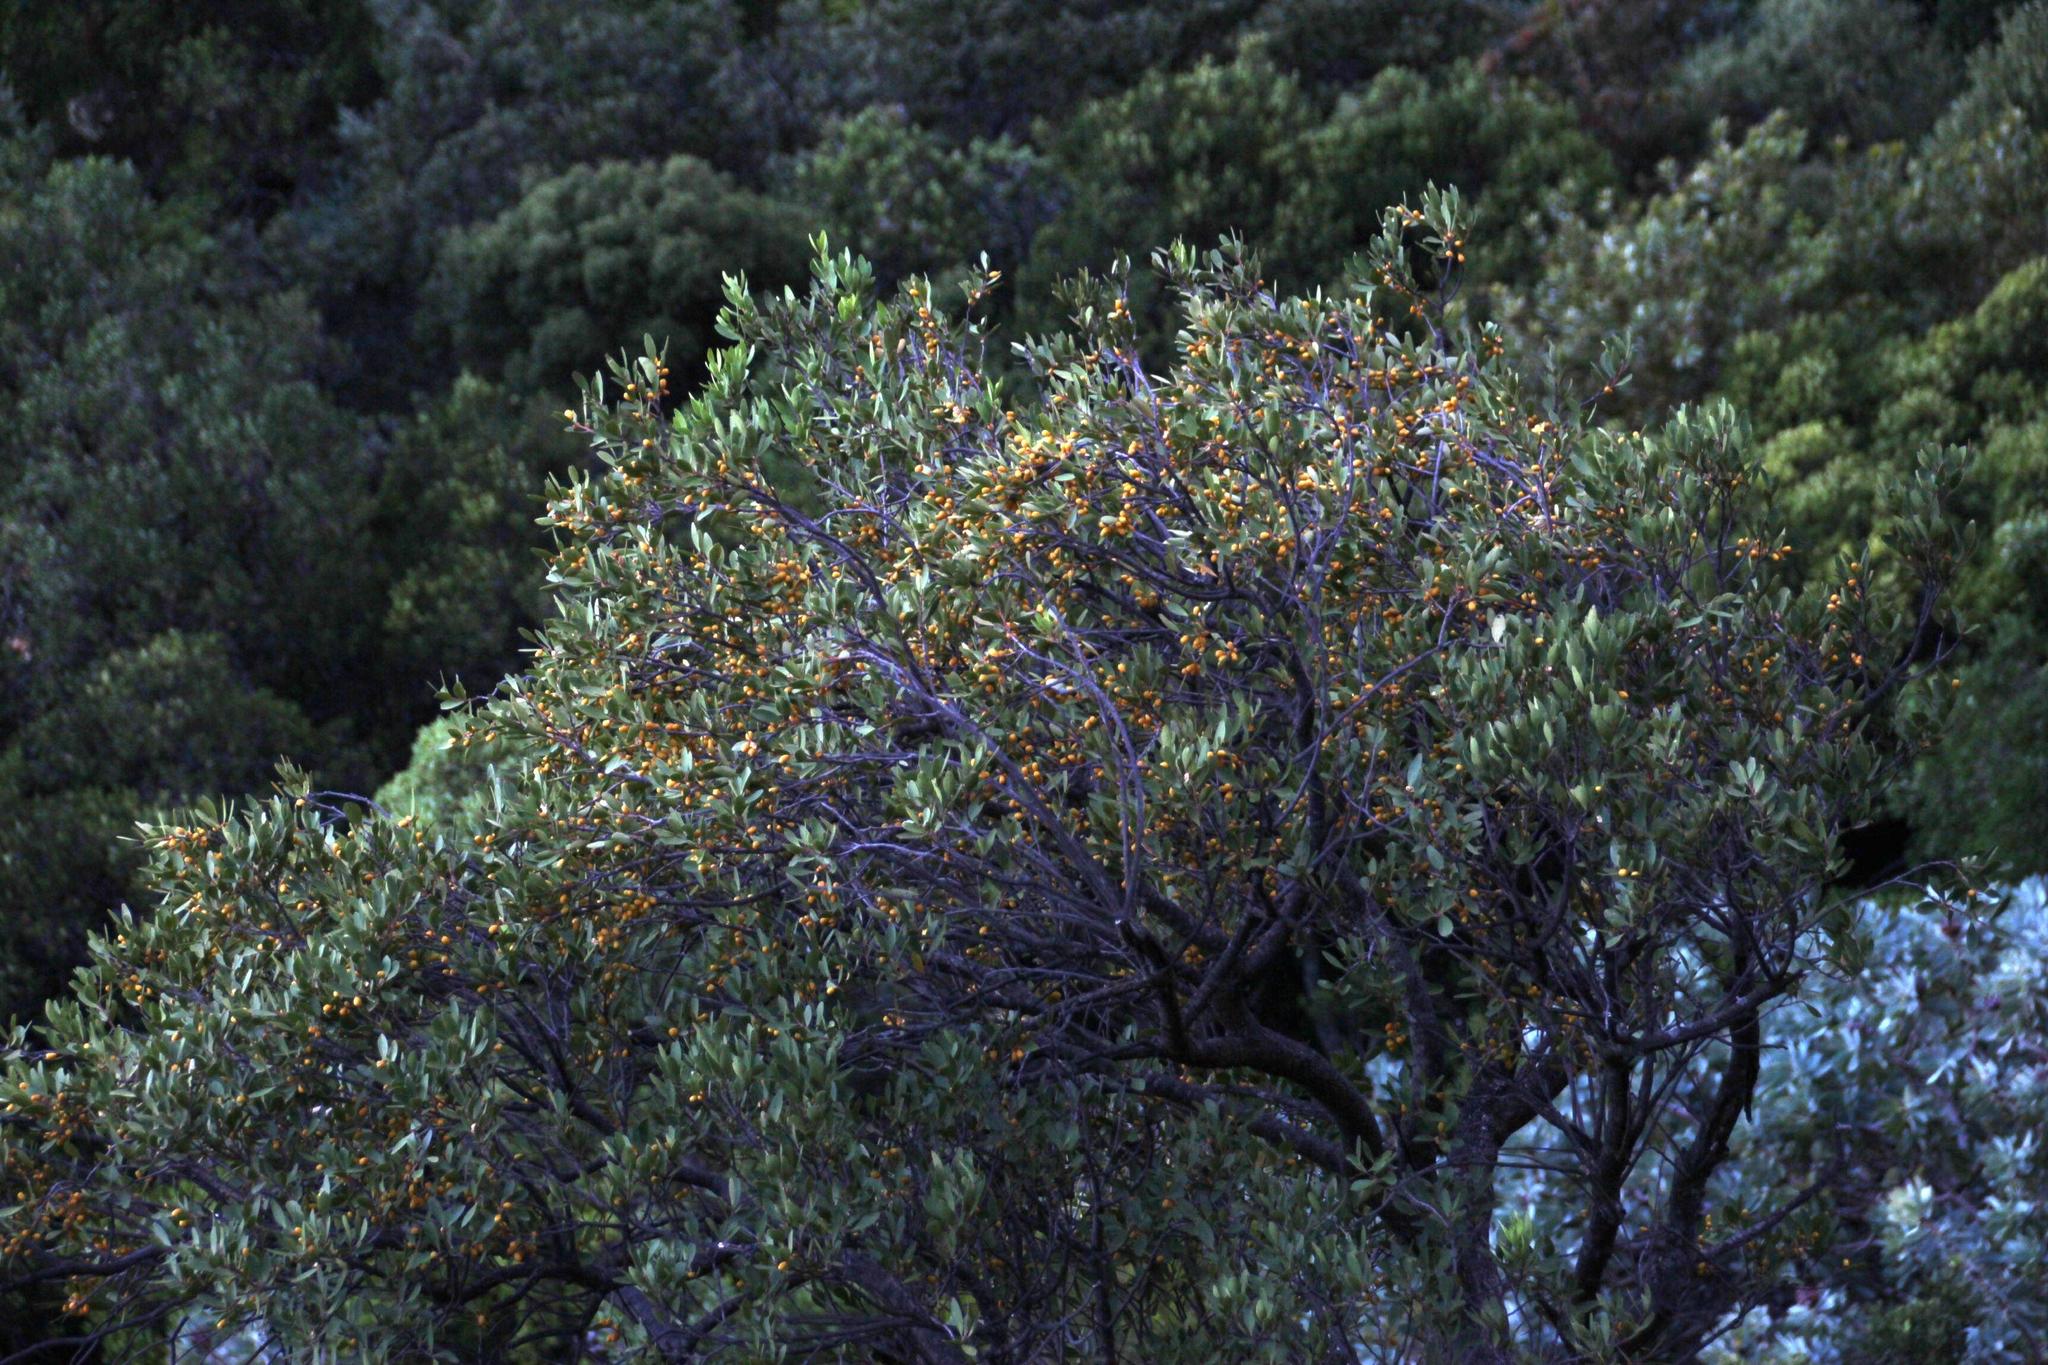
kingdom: Plantae
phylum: Tracheophyta
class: Magnoliopsida
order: Celastrales
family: Celastraceae
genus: Gymnosporia
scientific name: Gymnosporia laurina
